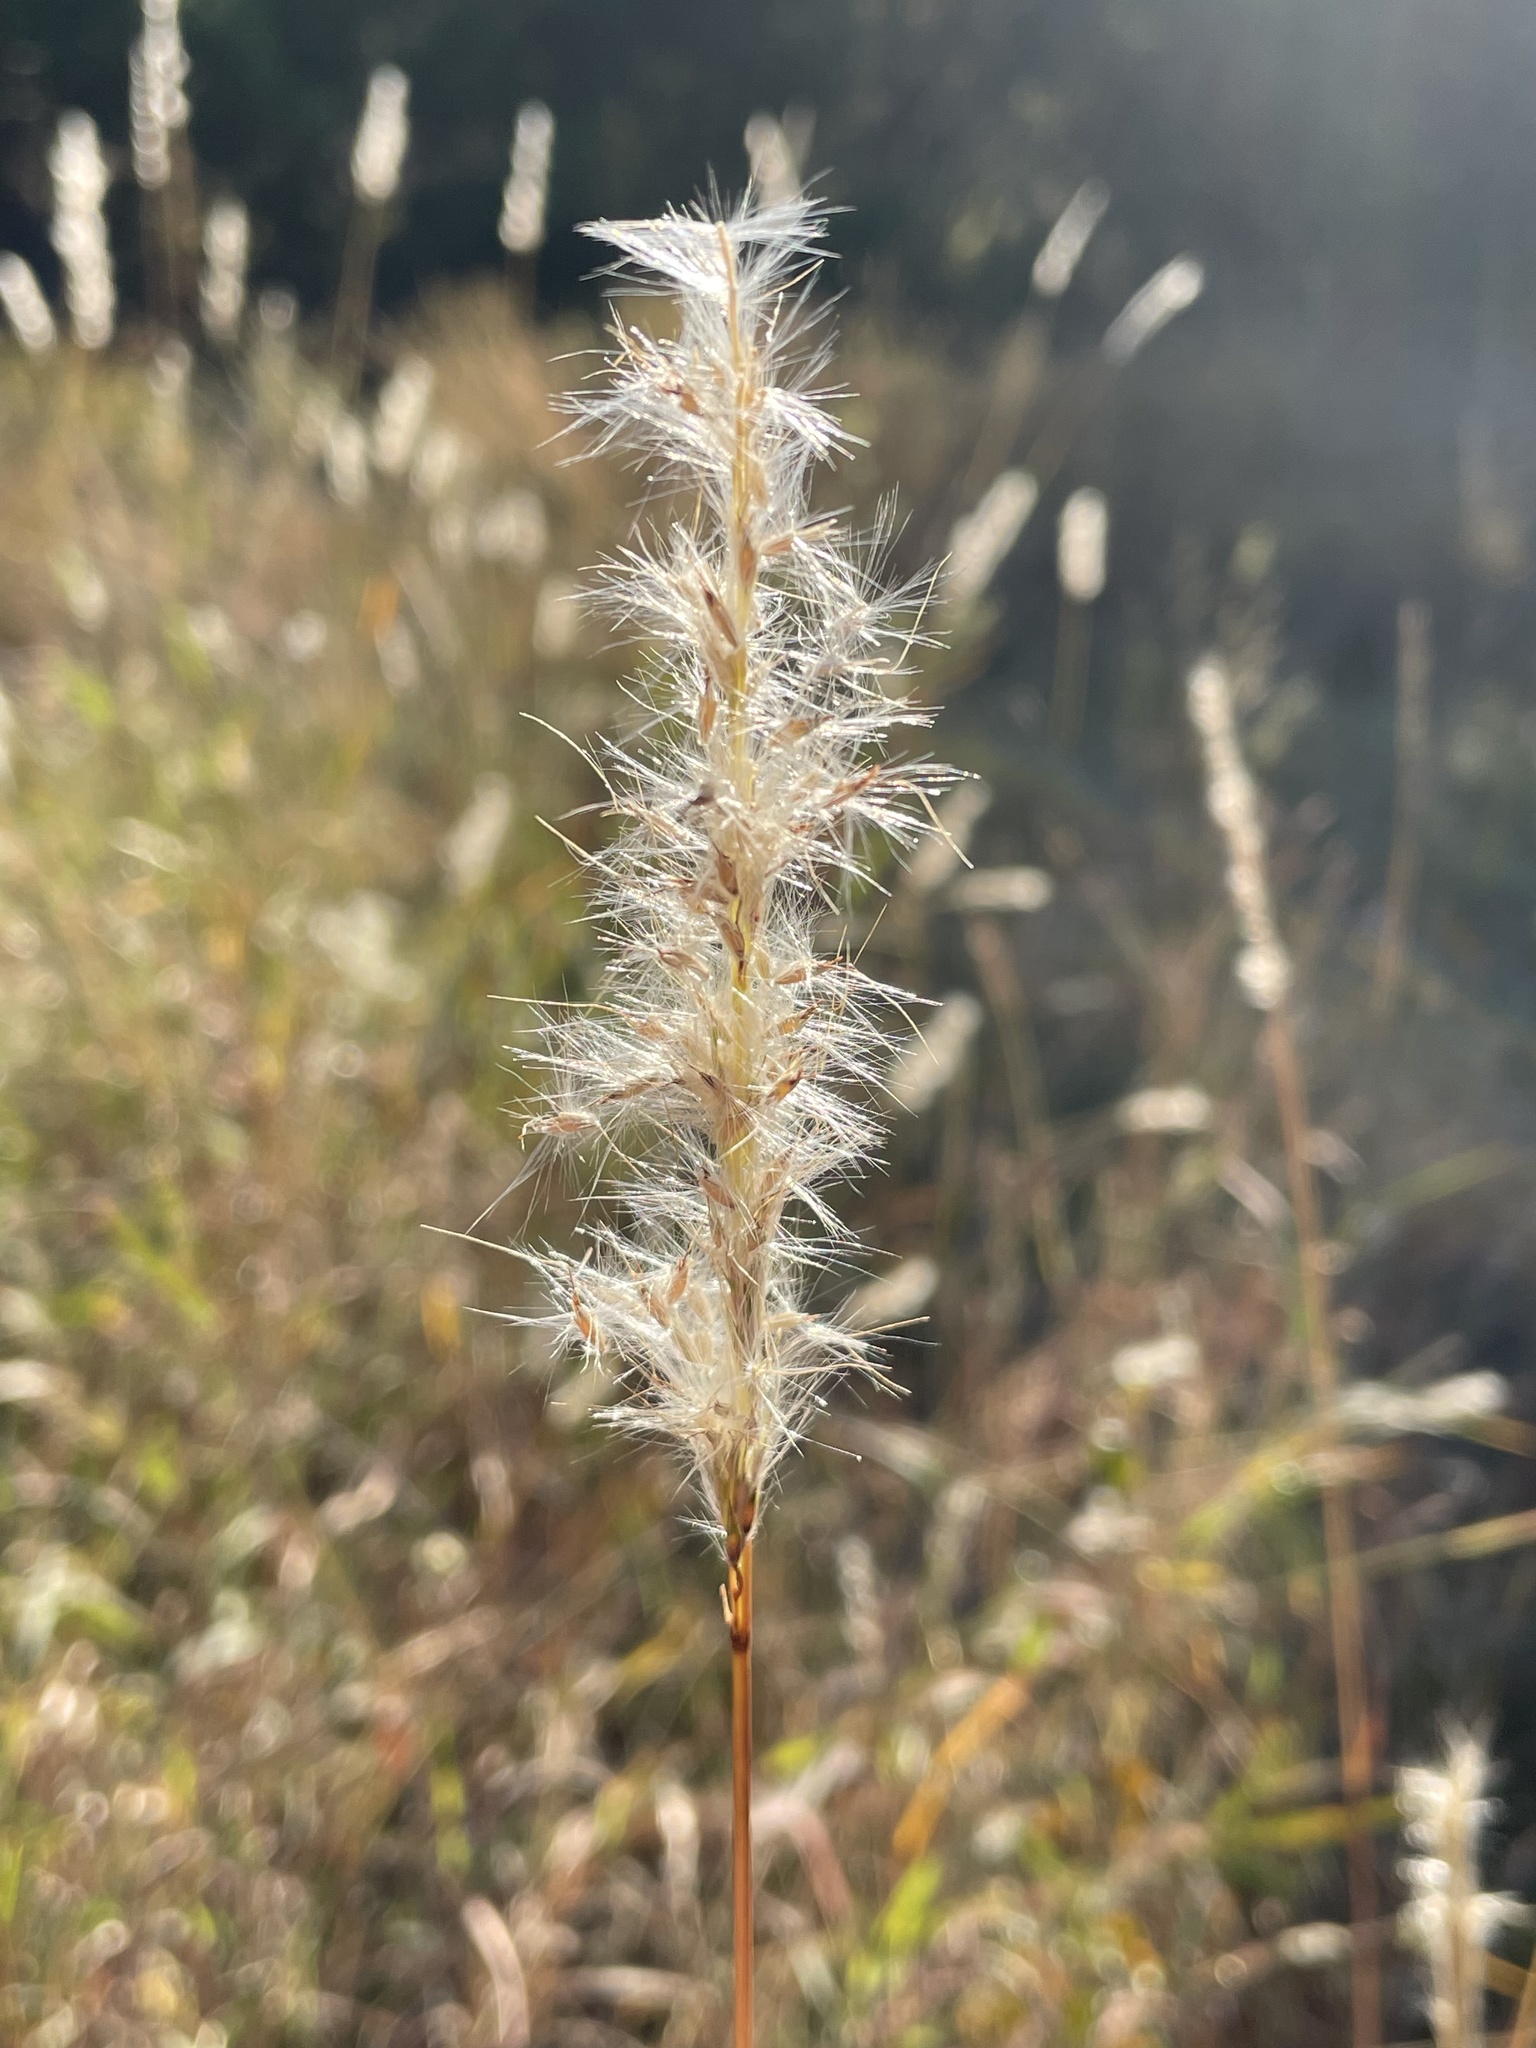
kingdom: Plantae
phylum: Tracheophyta
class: Liliopsida
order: Poales
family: Poaceae
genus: Bothriochloa
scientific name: Bothriochloa torreyana
